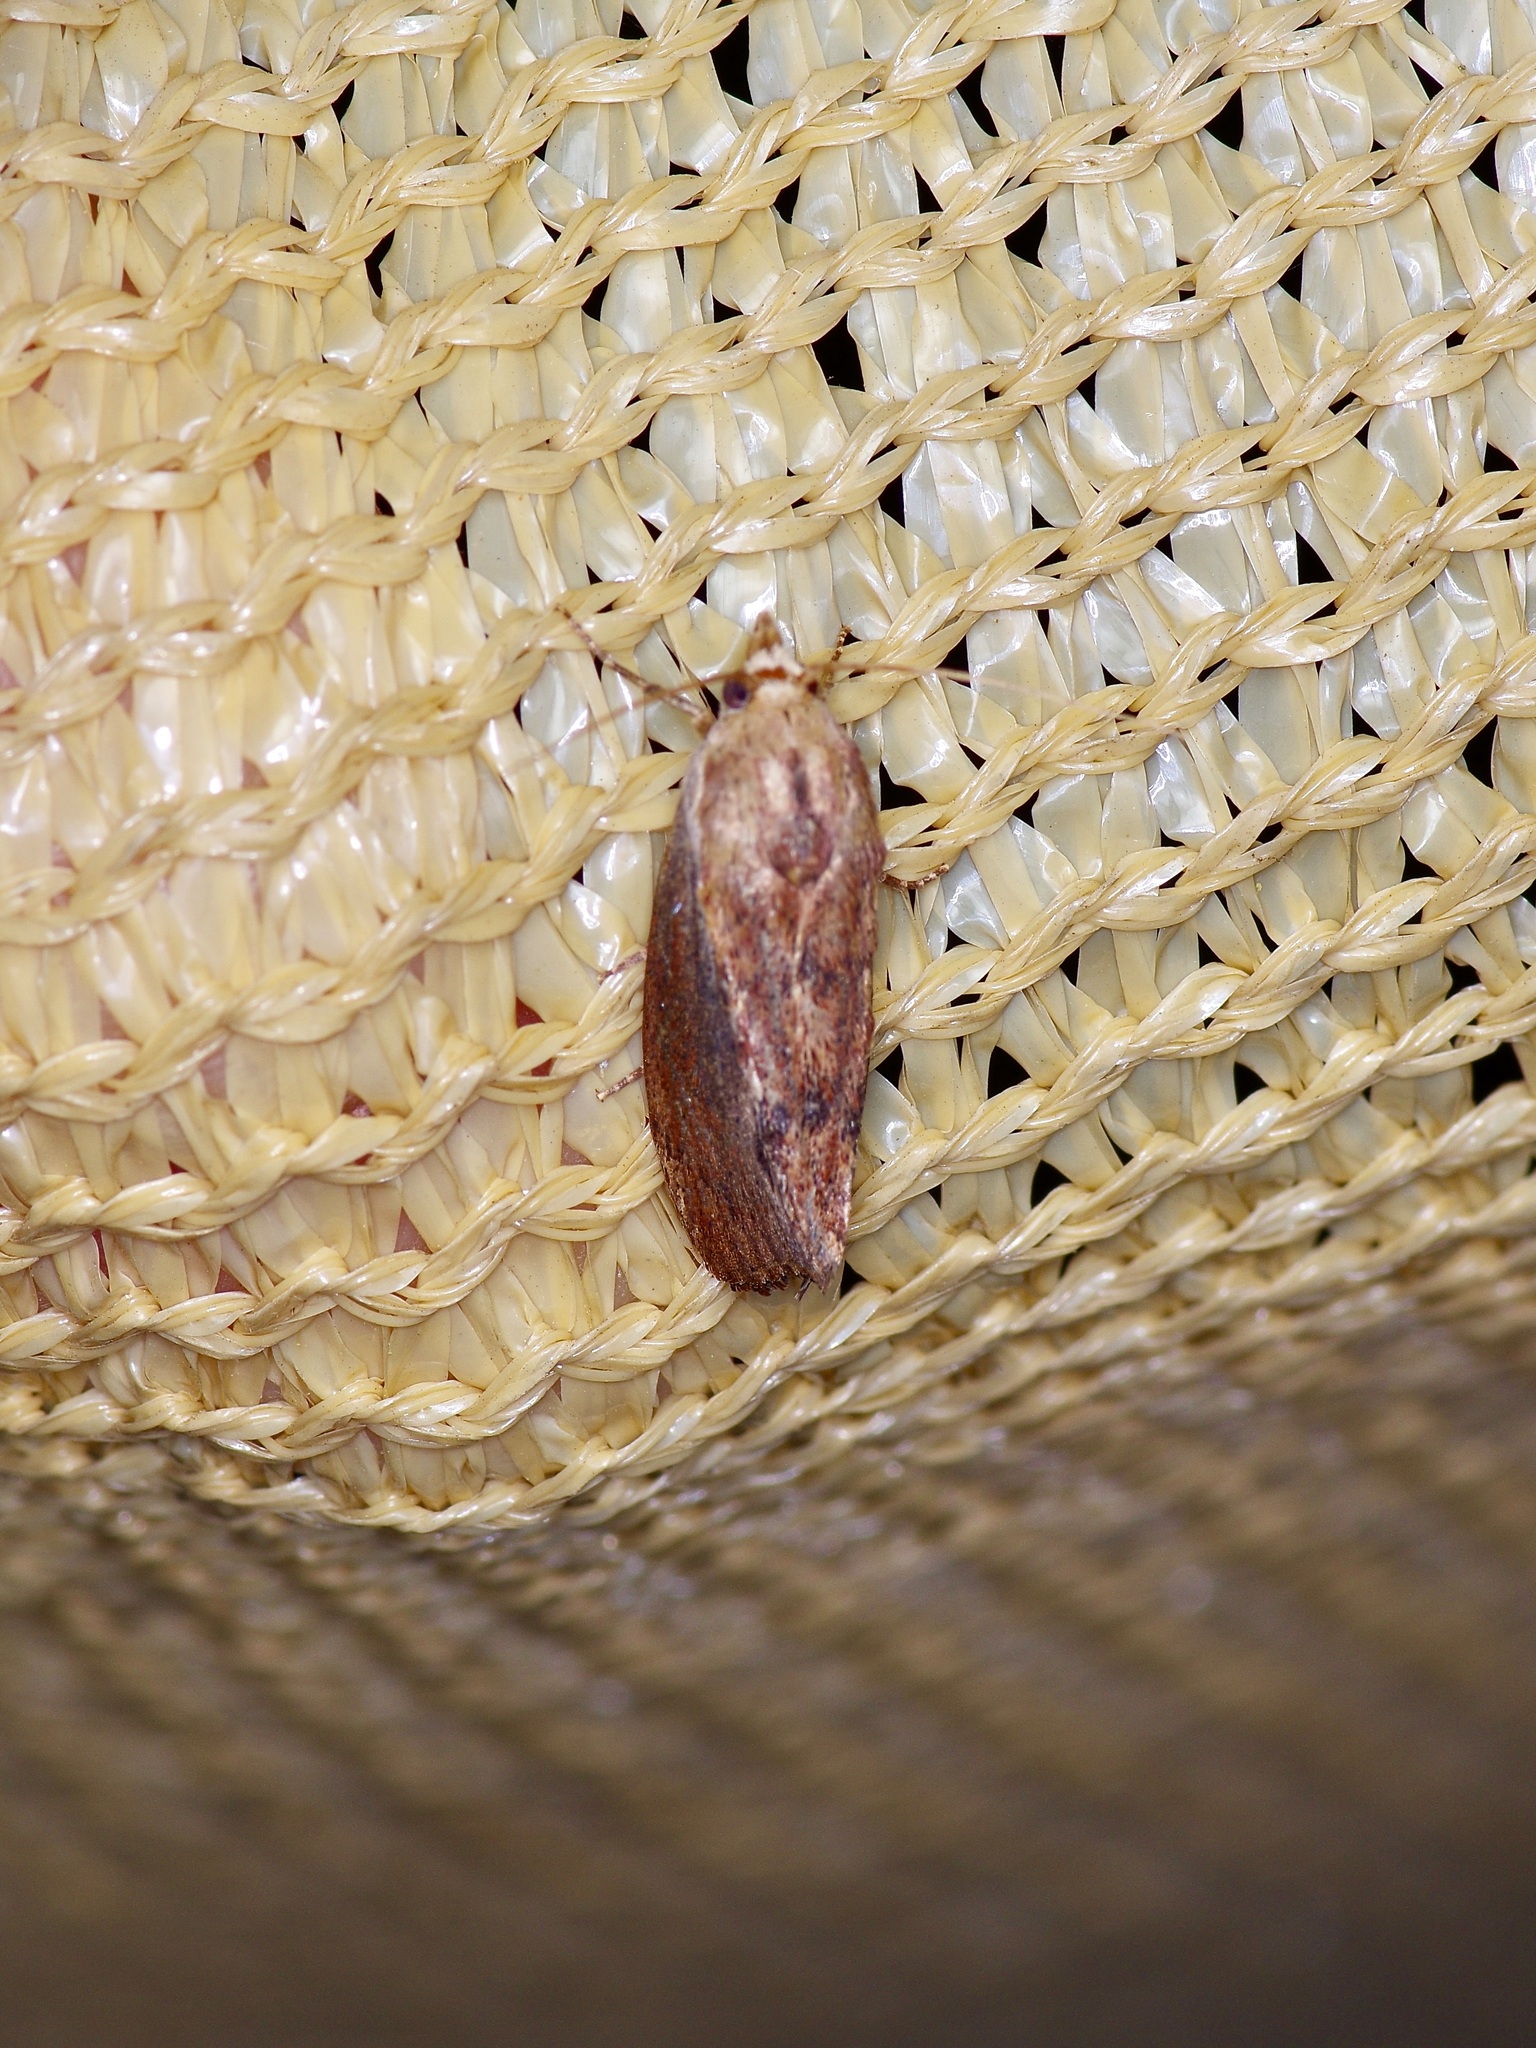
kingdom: Animalia
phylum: Arthropoda
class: Insecta
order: Lepidoptera
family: Pyralidae
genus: Galleria
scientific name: Galleria mellonella
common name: Greater wax moth
